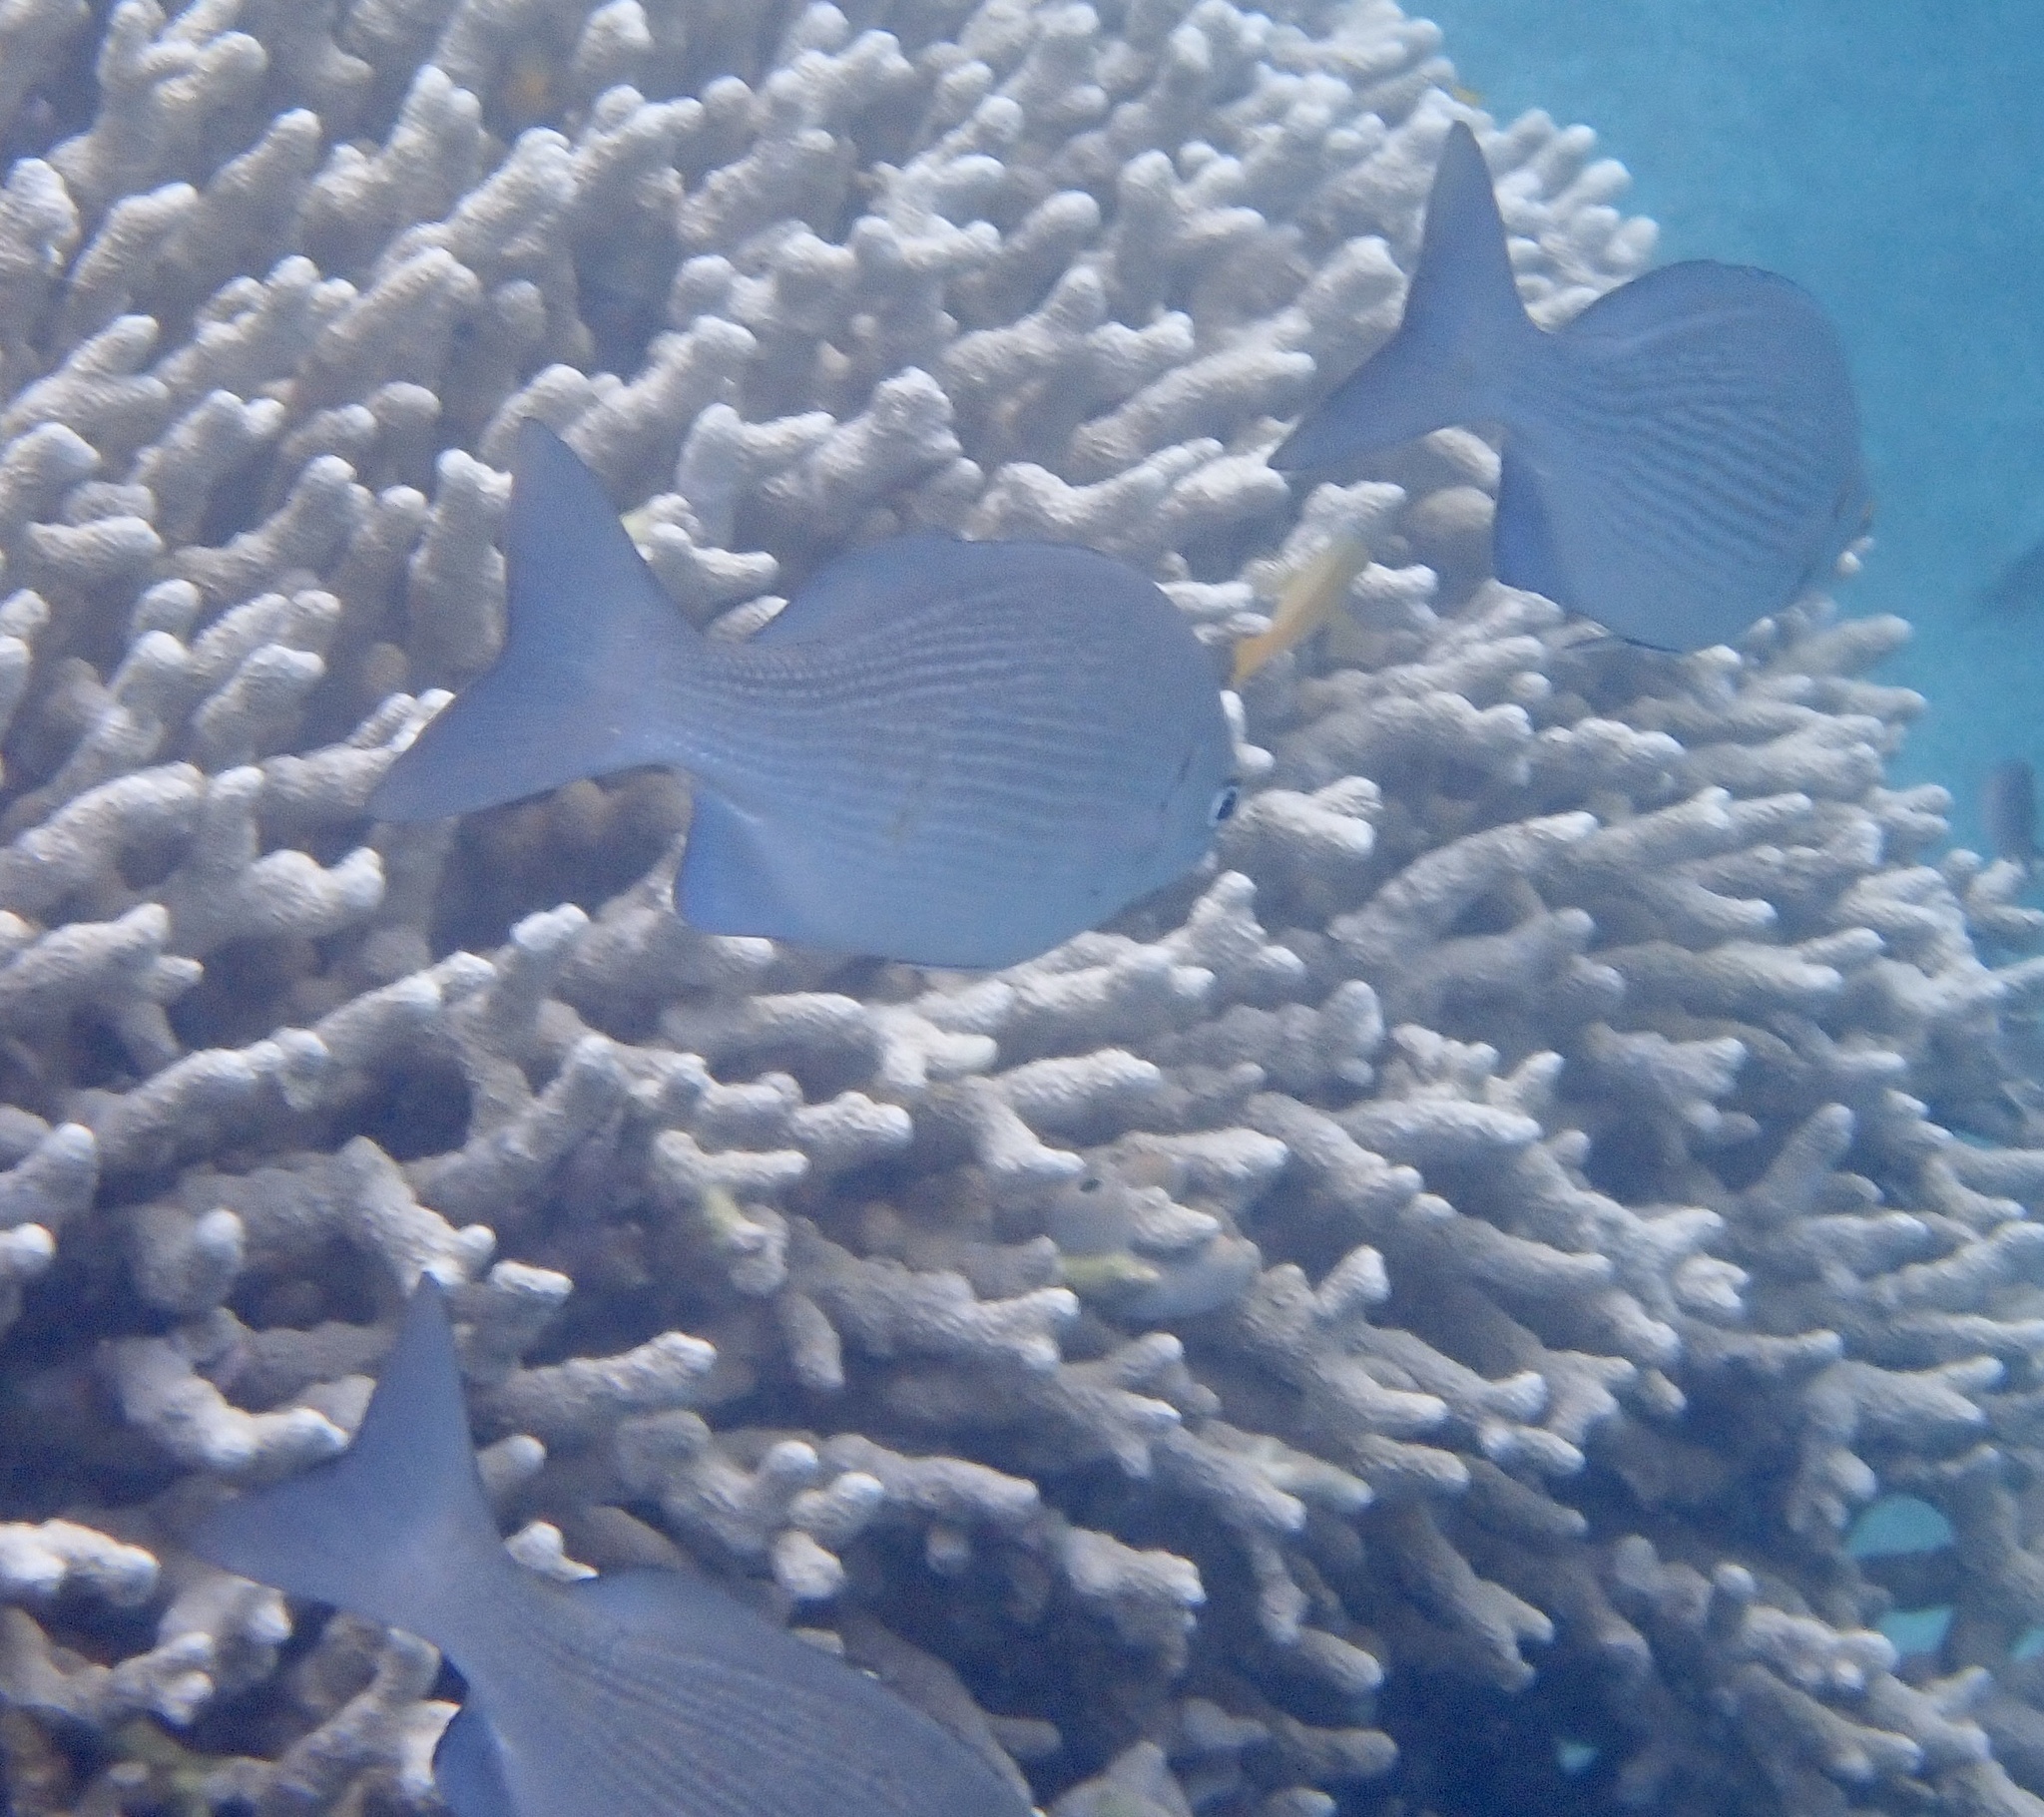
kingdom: Animalia
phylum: Chordata
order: Perciformes
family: Kyphosidae
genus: Kyphosus
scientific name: Kyphosus cinerascens
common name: Topsail drummer
